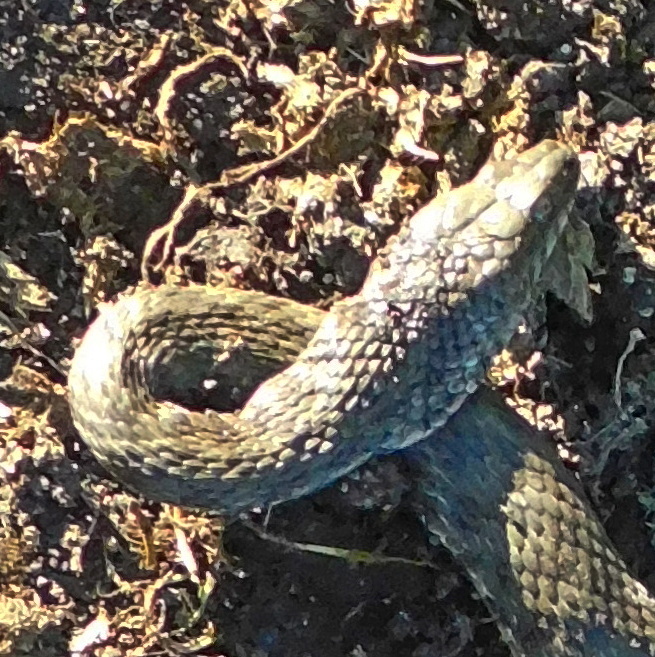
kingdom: Animalia
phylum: Chordata
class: Squamata
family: Colubridae
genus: Natrix
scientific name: Natrix tessellata
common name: Dice snake
